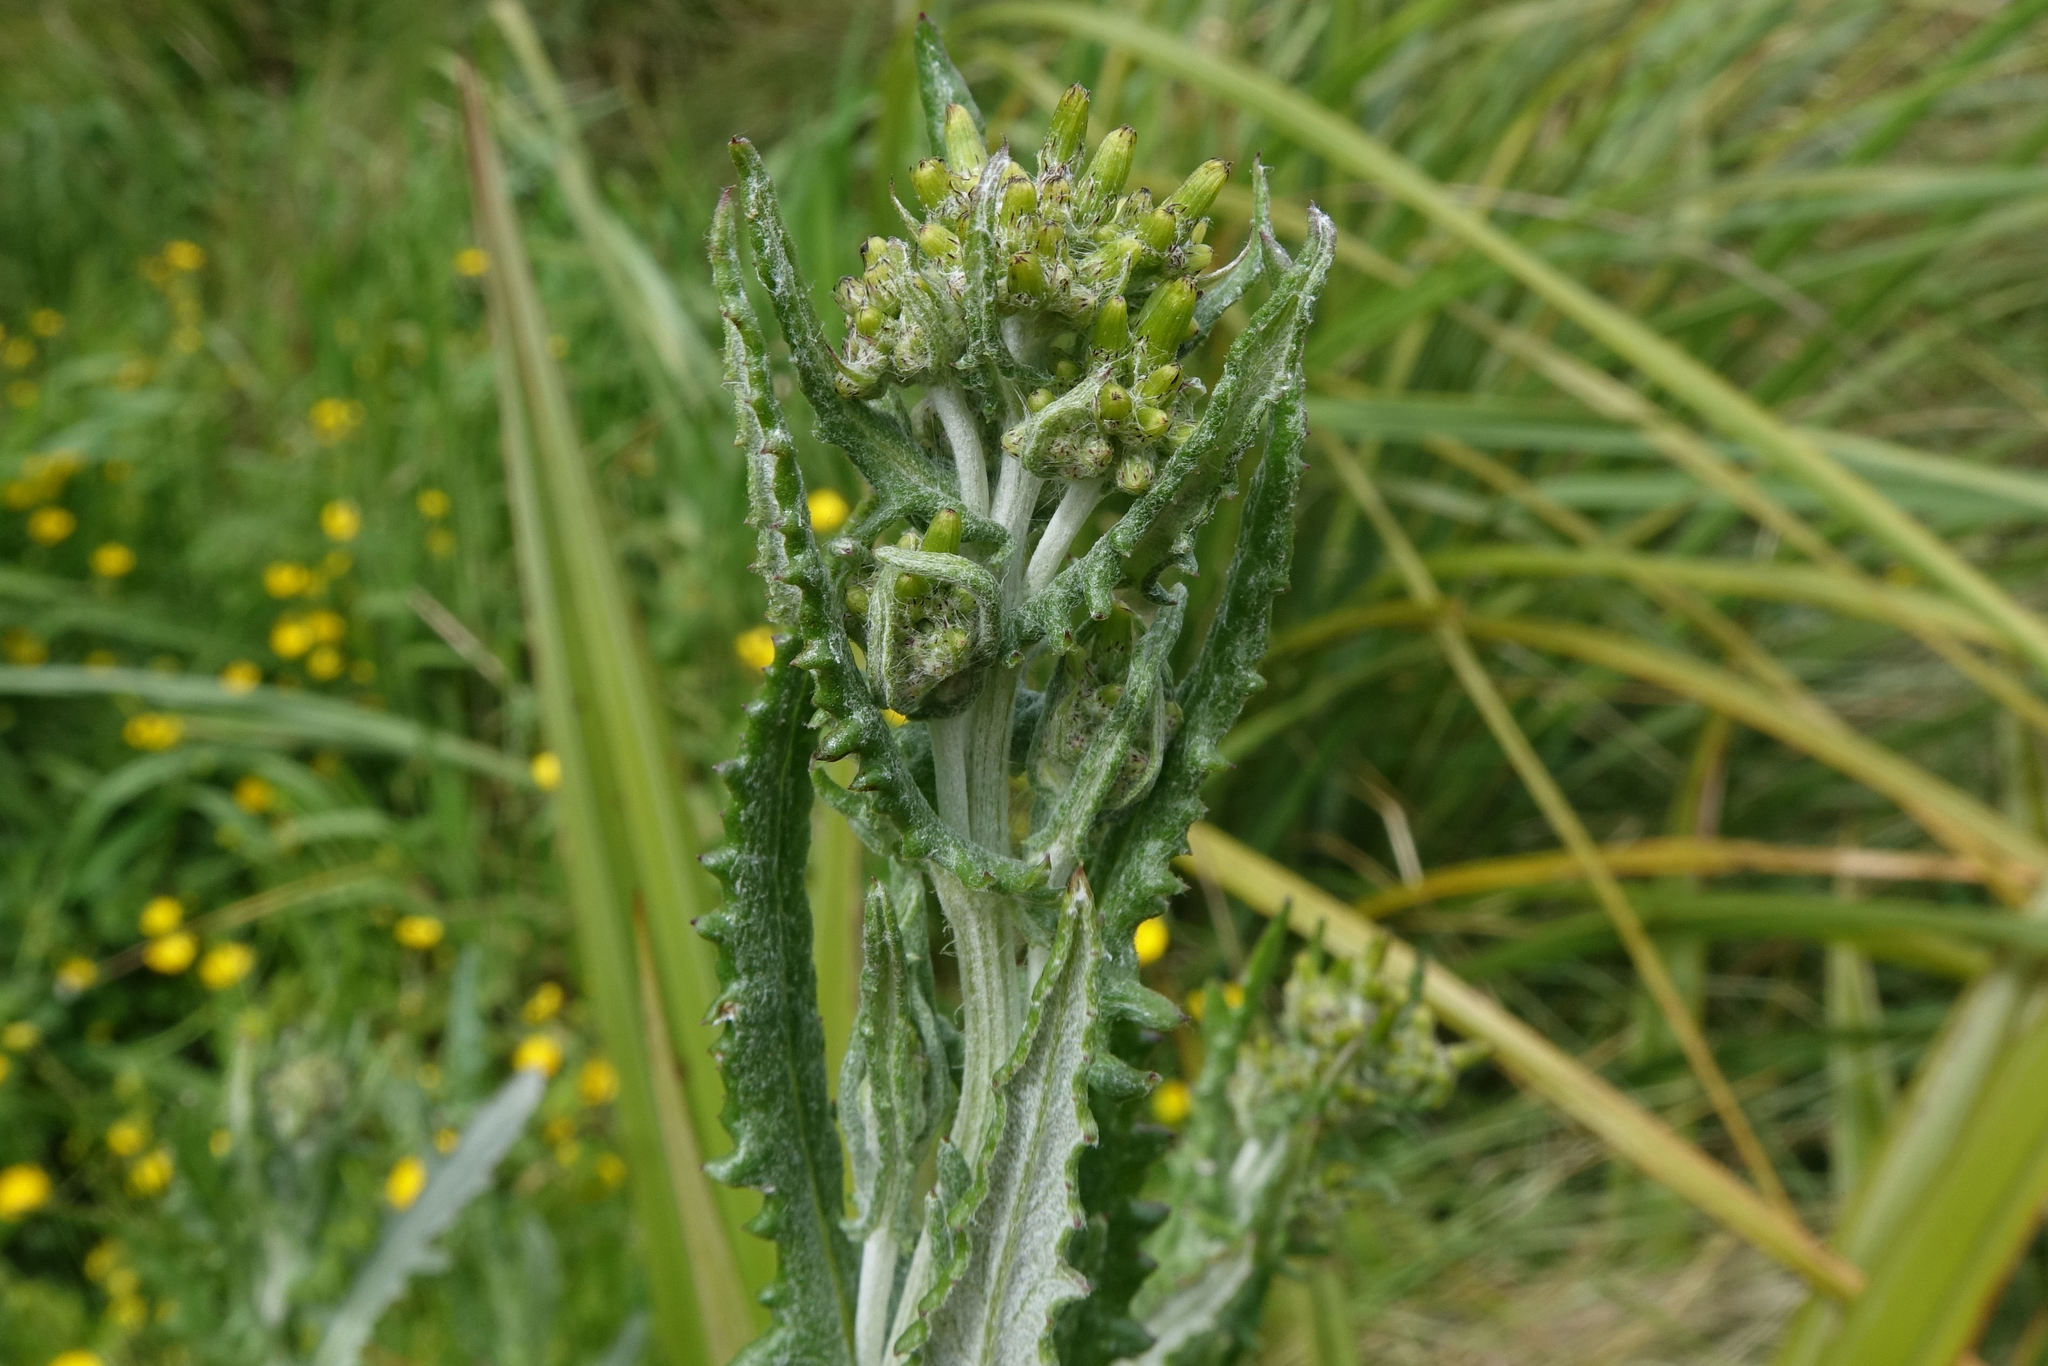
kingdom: Plantae
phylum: Tracheophyta
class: Magnoliopsida
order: Asterales
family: Asteraceae
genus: Senecio
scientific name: Senecio glomeratus
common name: Cutleaf burnweed
